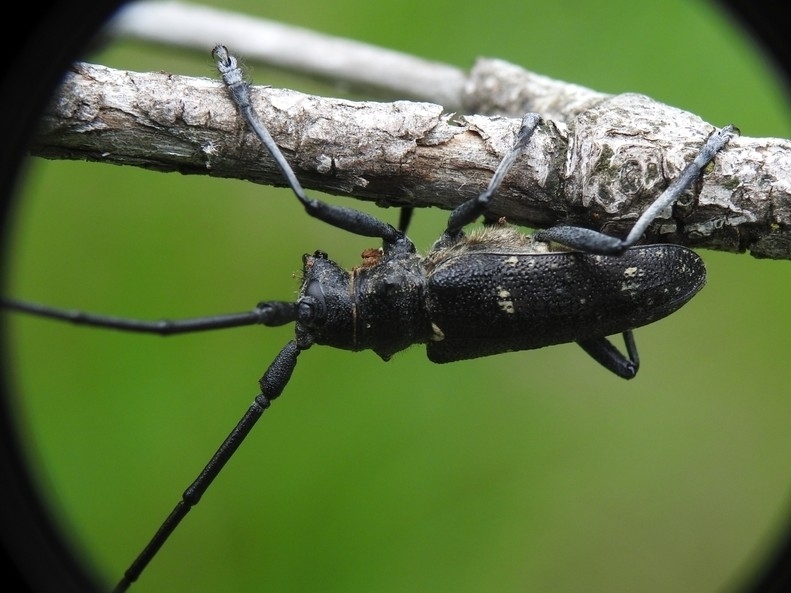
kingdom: Animalia
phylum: Arthropoda
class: Insecta
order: Coleoptera
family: Cerambycidae
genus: Monochamus
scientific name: Monochamus sutor
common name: Pine sawyer
